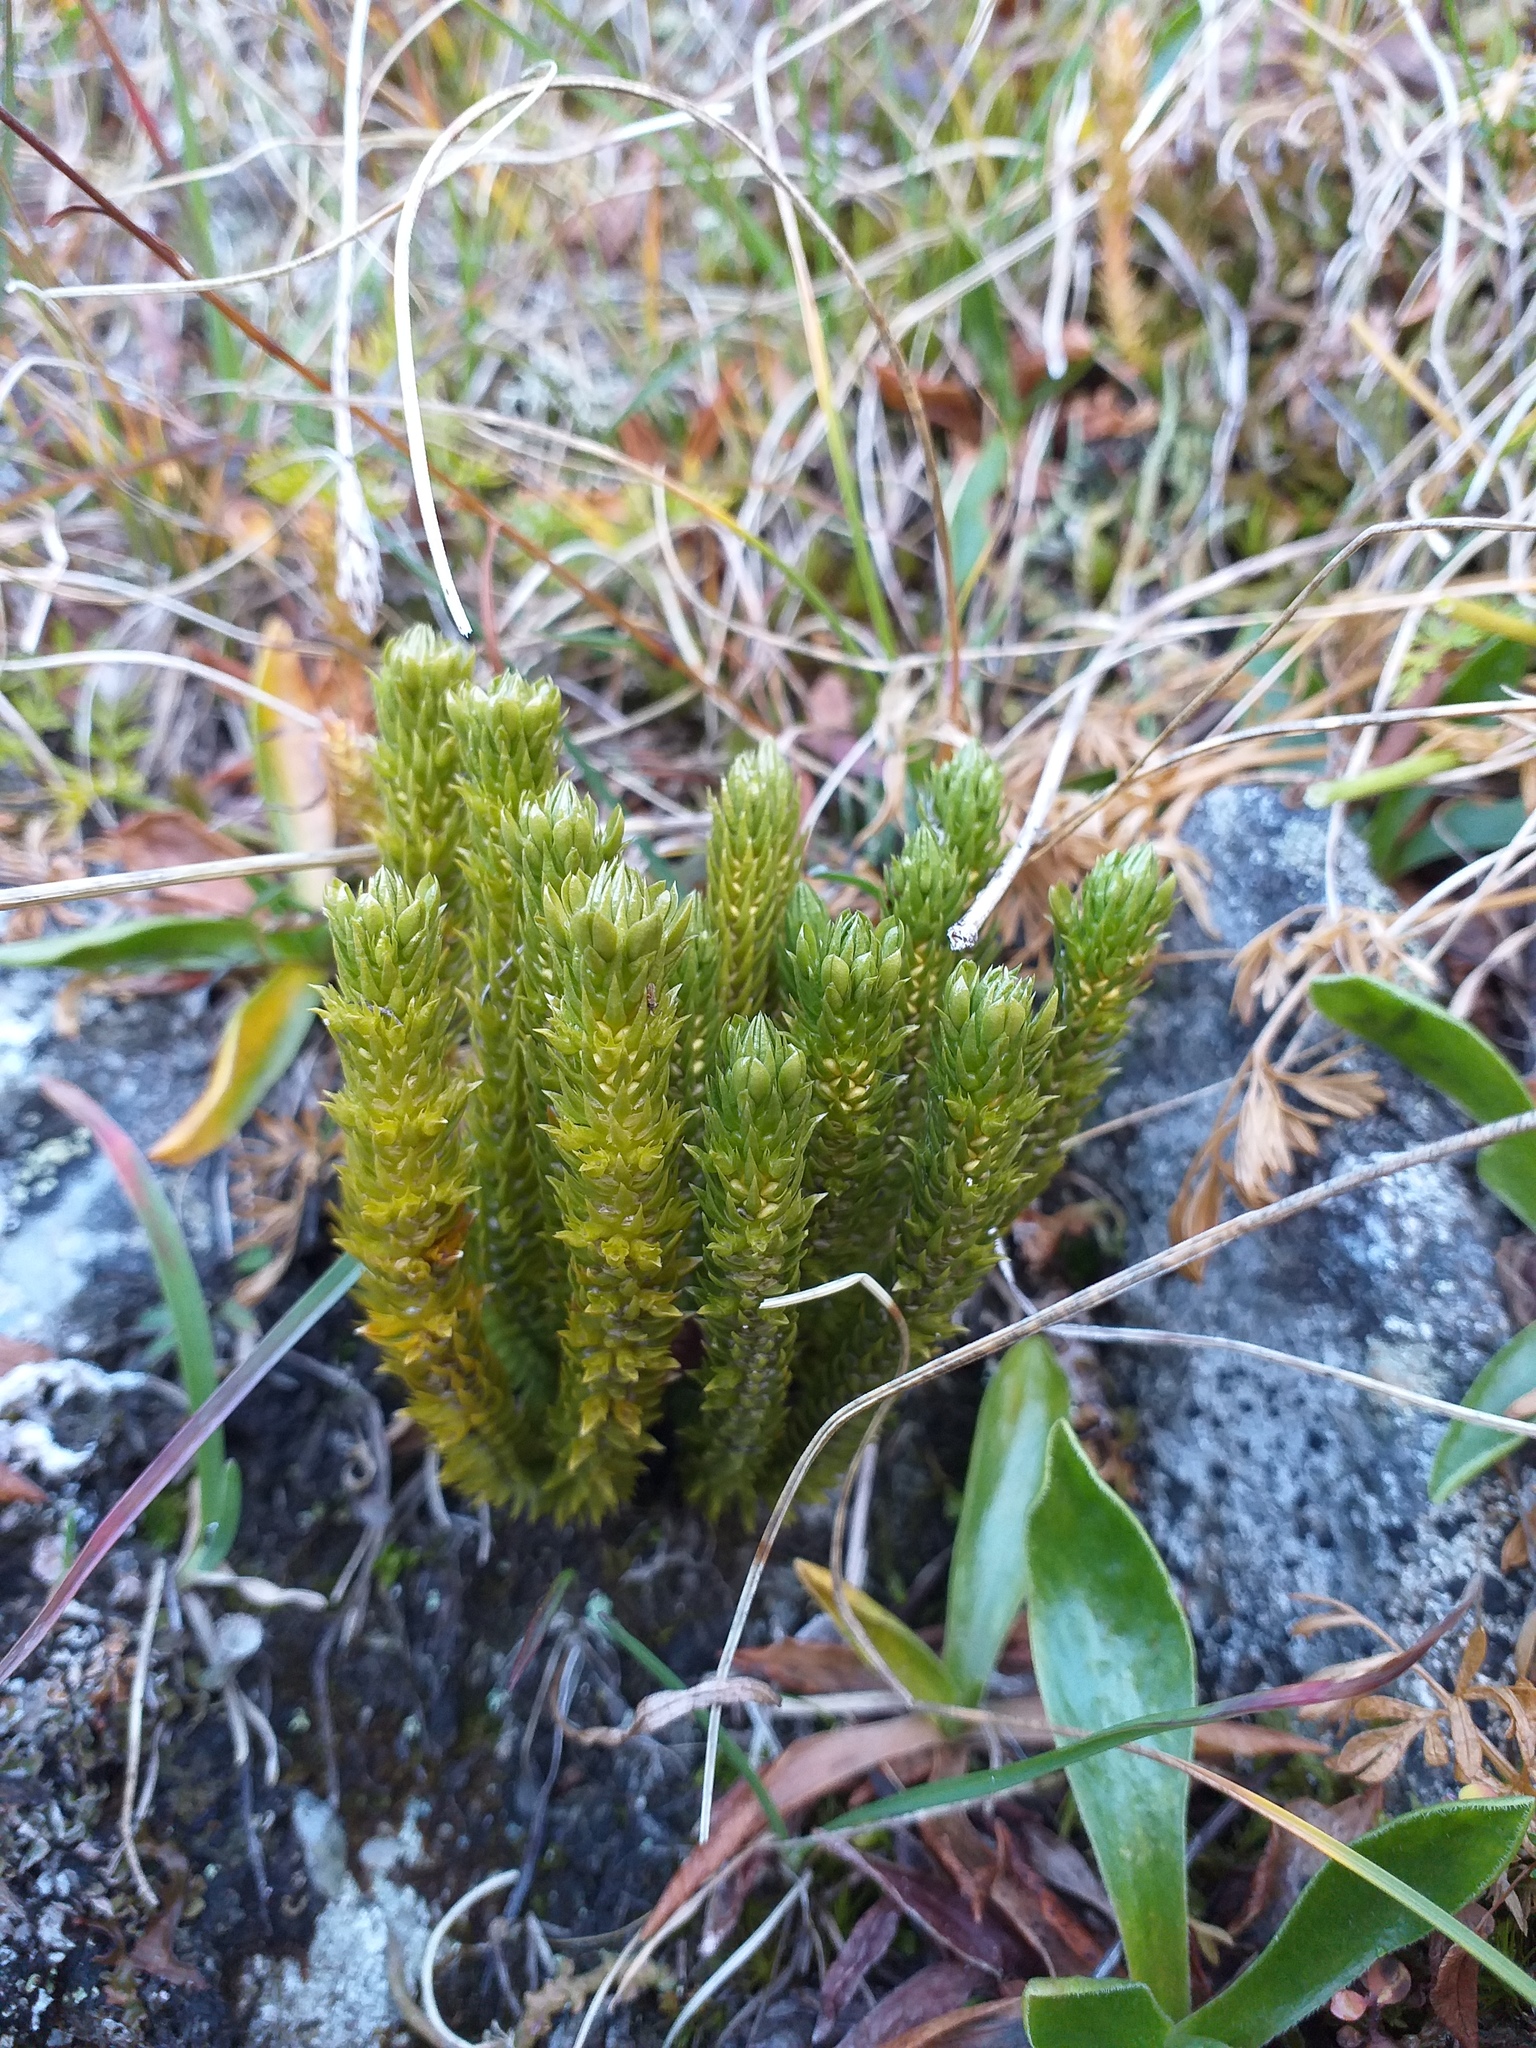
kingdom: Plantae
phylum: Tracheophyta
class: Lycopodiopsida
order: Lycopodiales
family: Lycopodiaceae
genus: Huperzia
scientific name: Huperzia selago
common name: Northern firmoss
